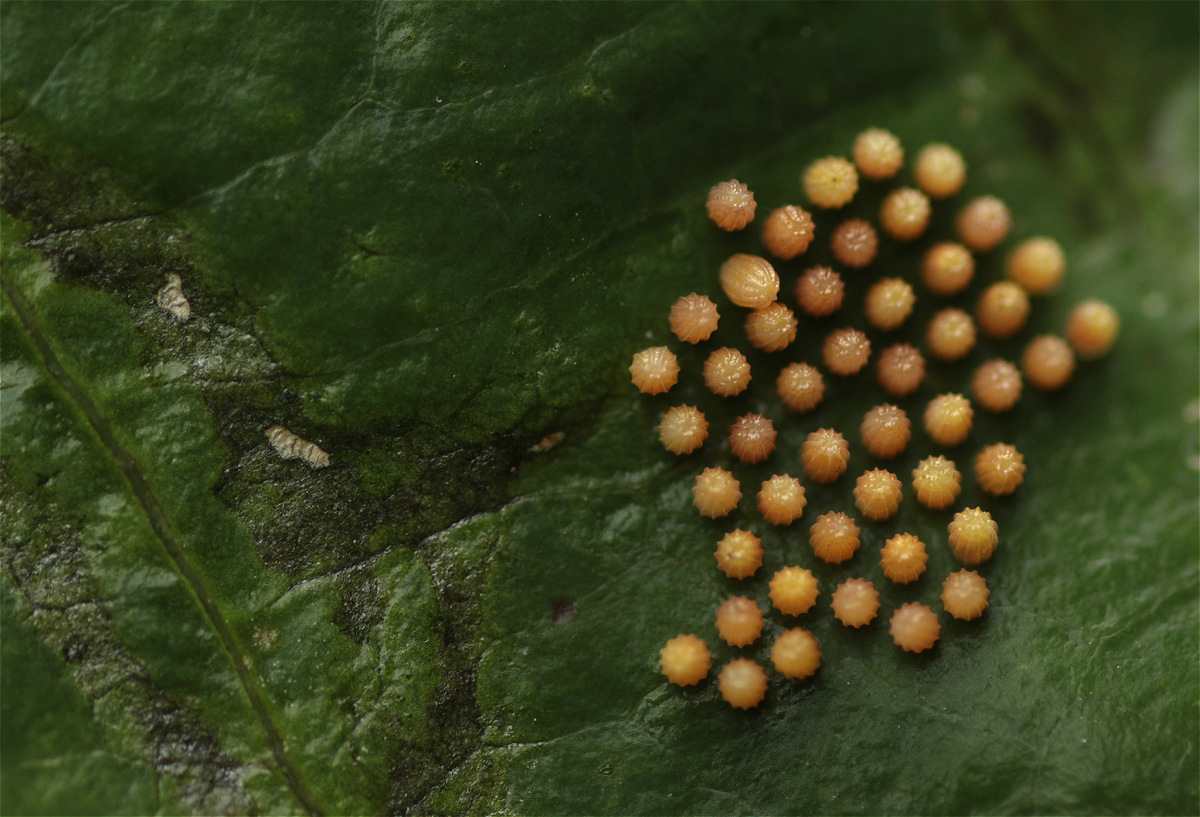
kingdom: Animalia
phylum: Arthropoda
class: Insecta
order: Lepidoptera
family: Nymphalidae
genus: Dione
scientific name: Dione juno
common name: Juno silverspot
